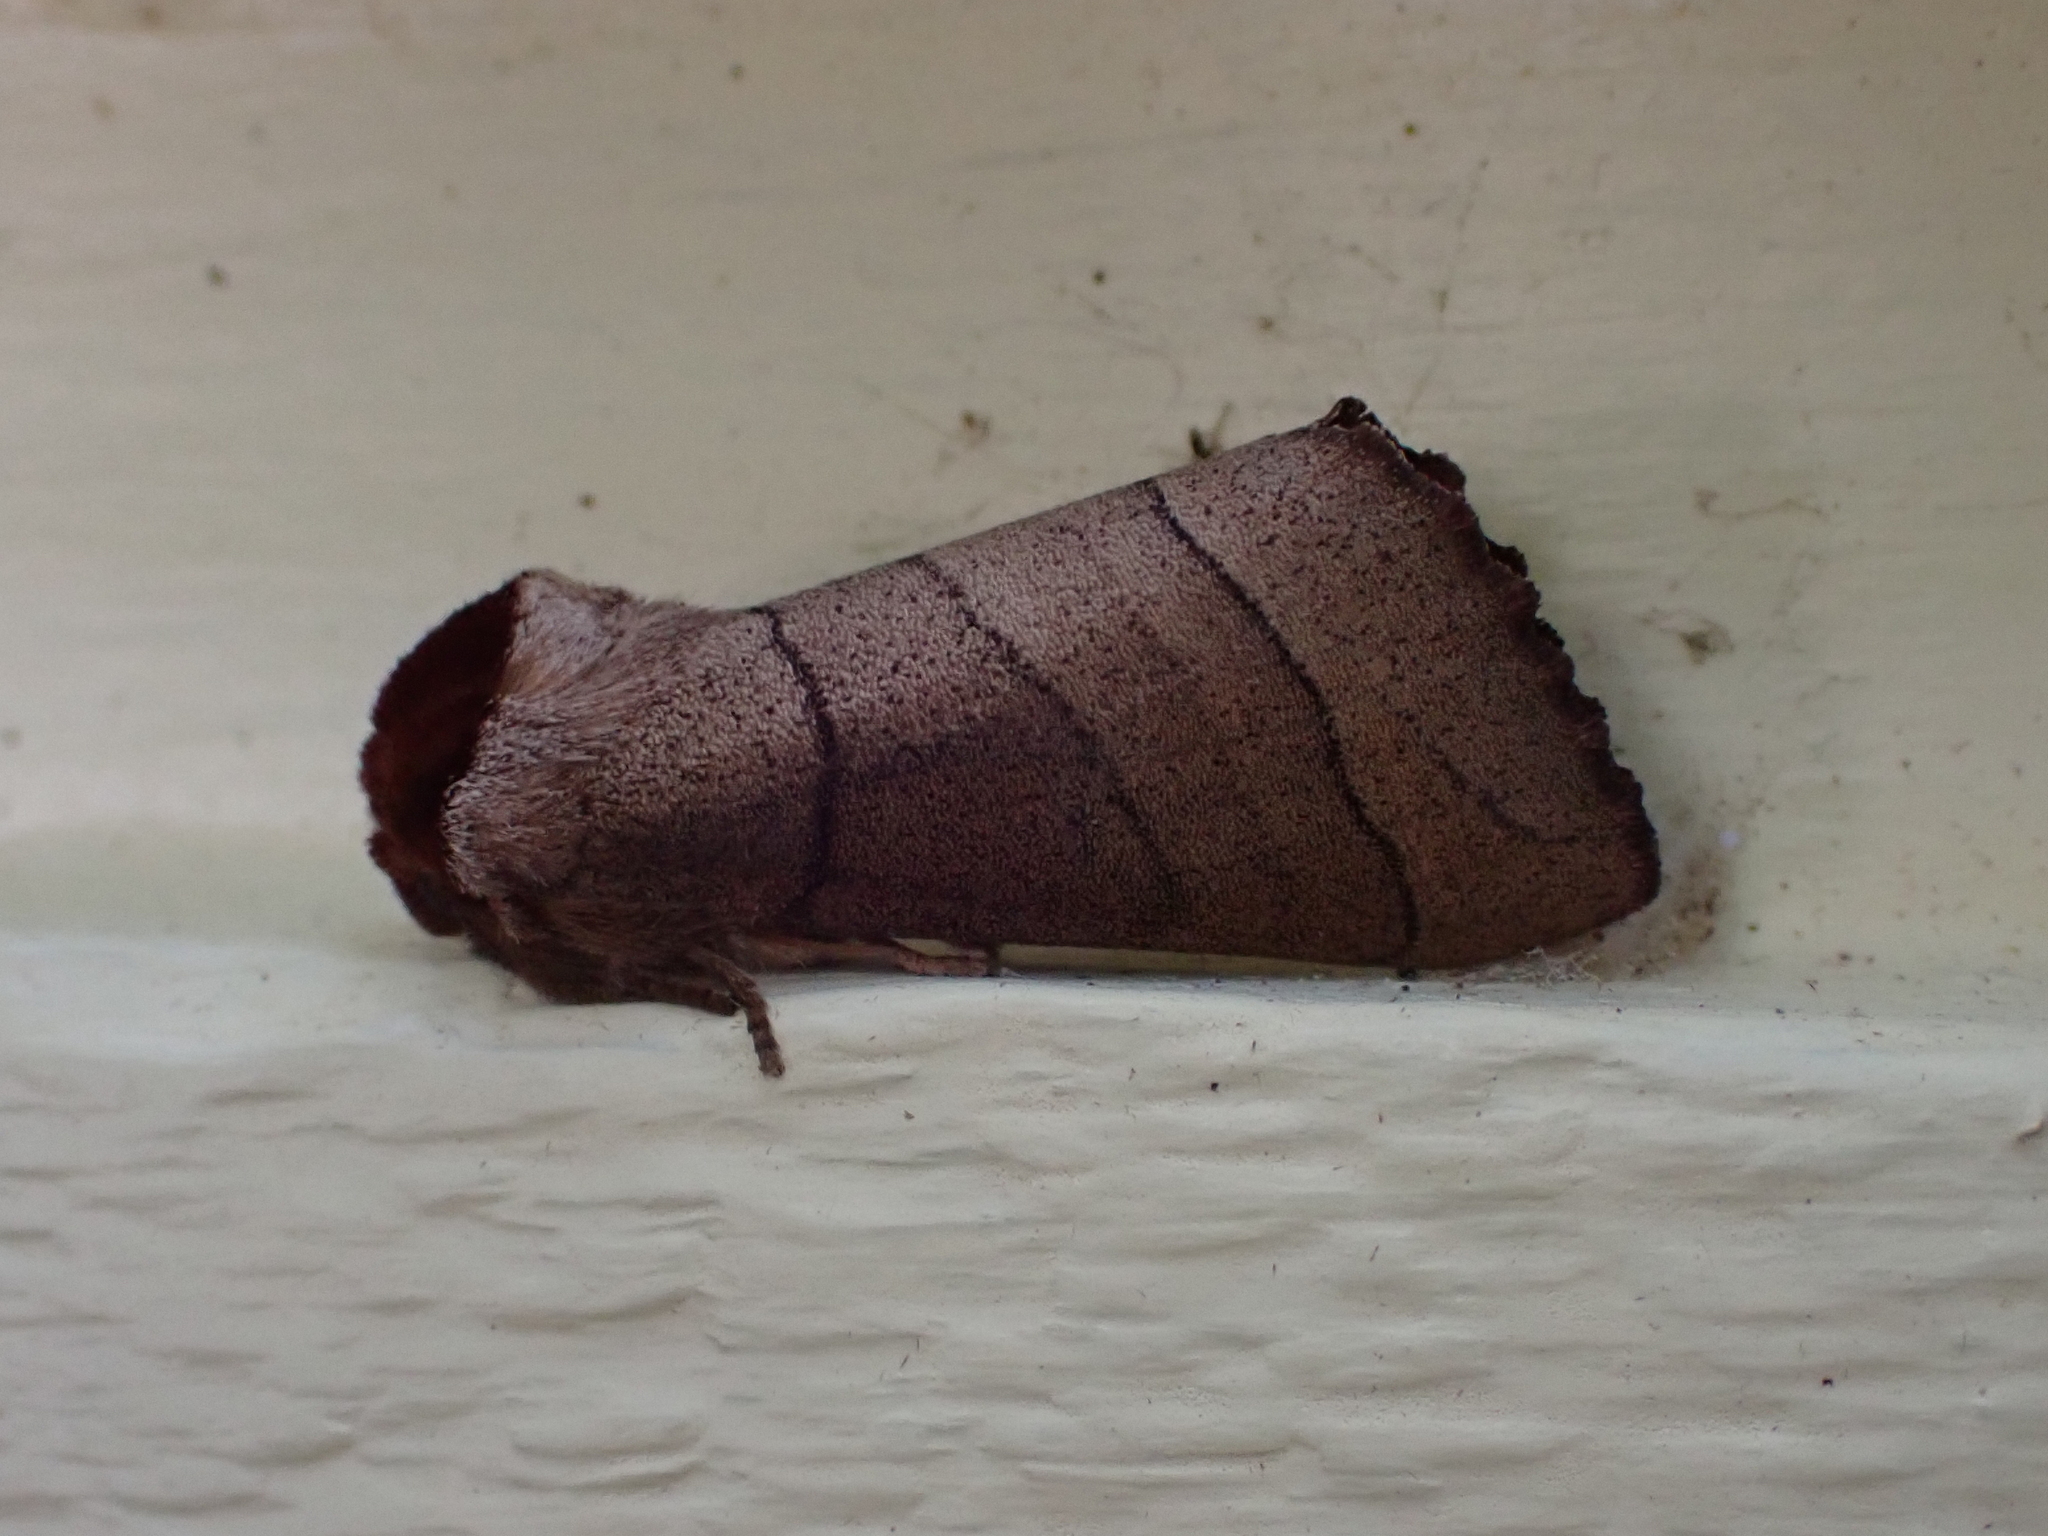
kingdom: Animalia
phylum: Arthropoda
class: Insecta
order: Lepidoptera
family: Notodontidae
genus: Datana
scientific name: Datana ministra
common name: Yellow-necked caterpillar moth
